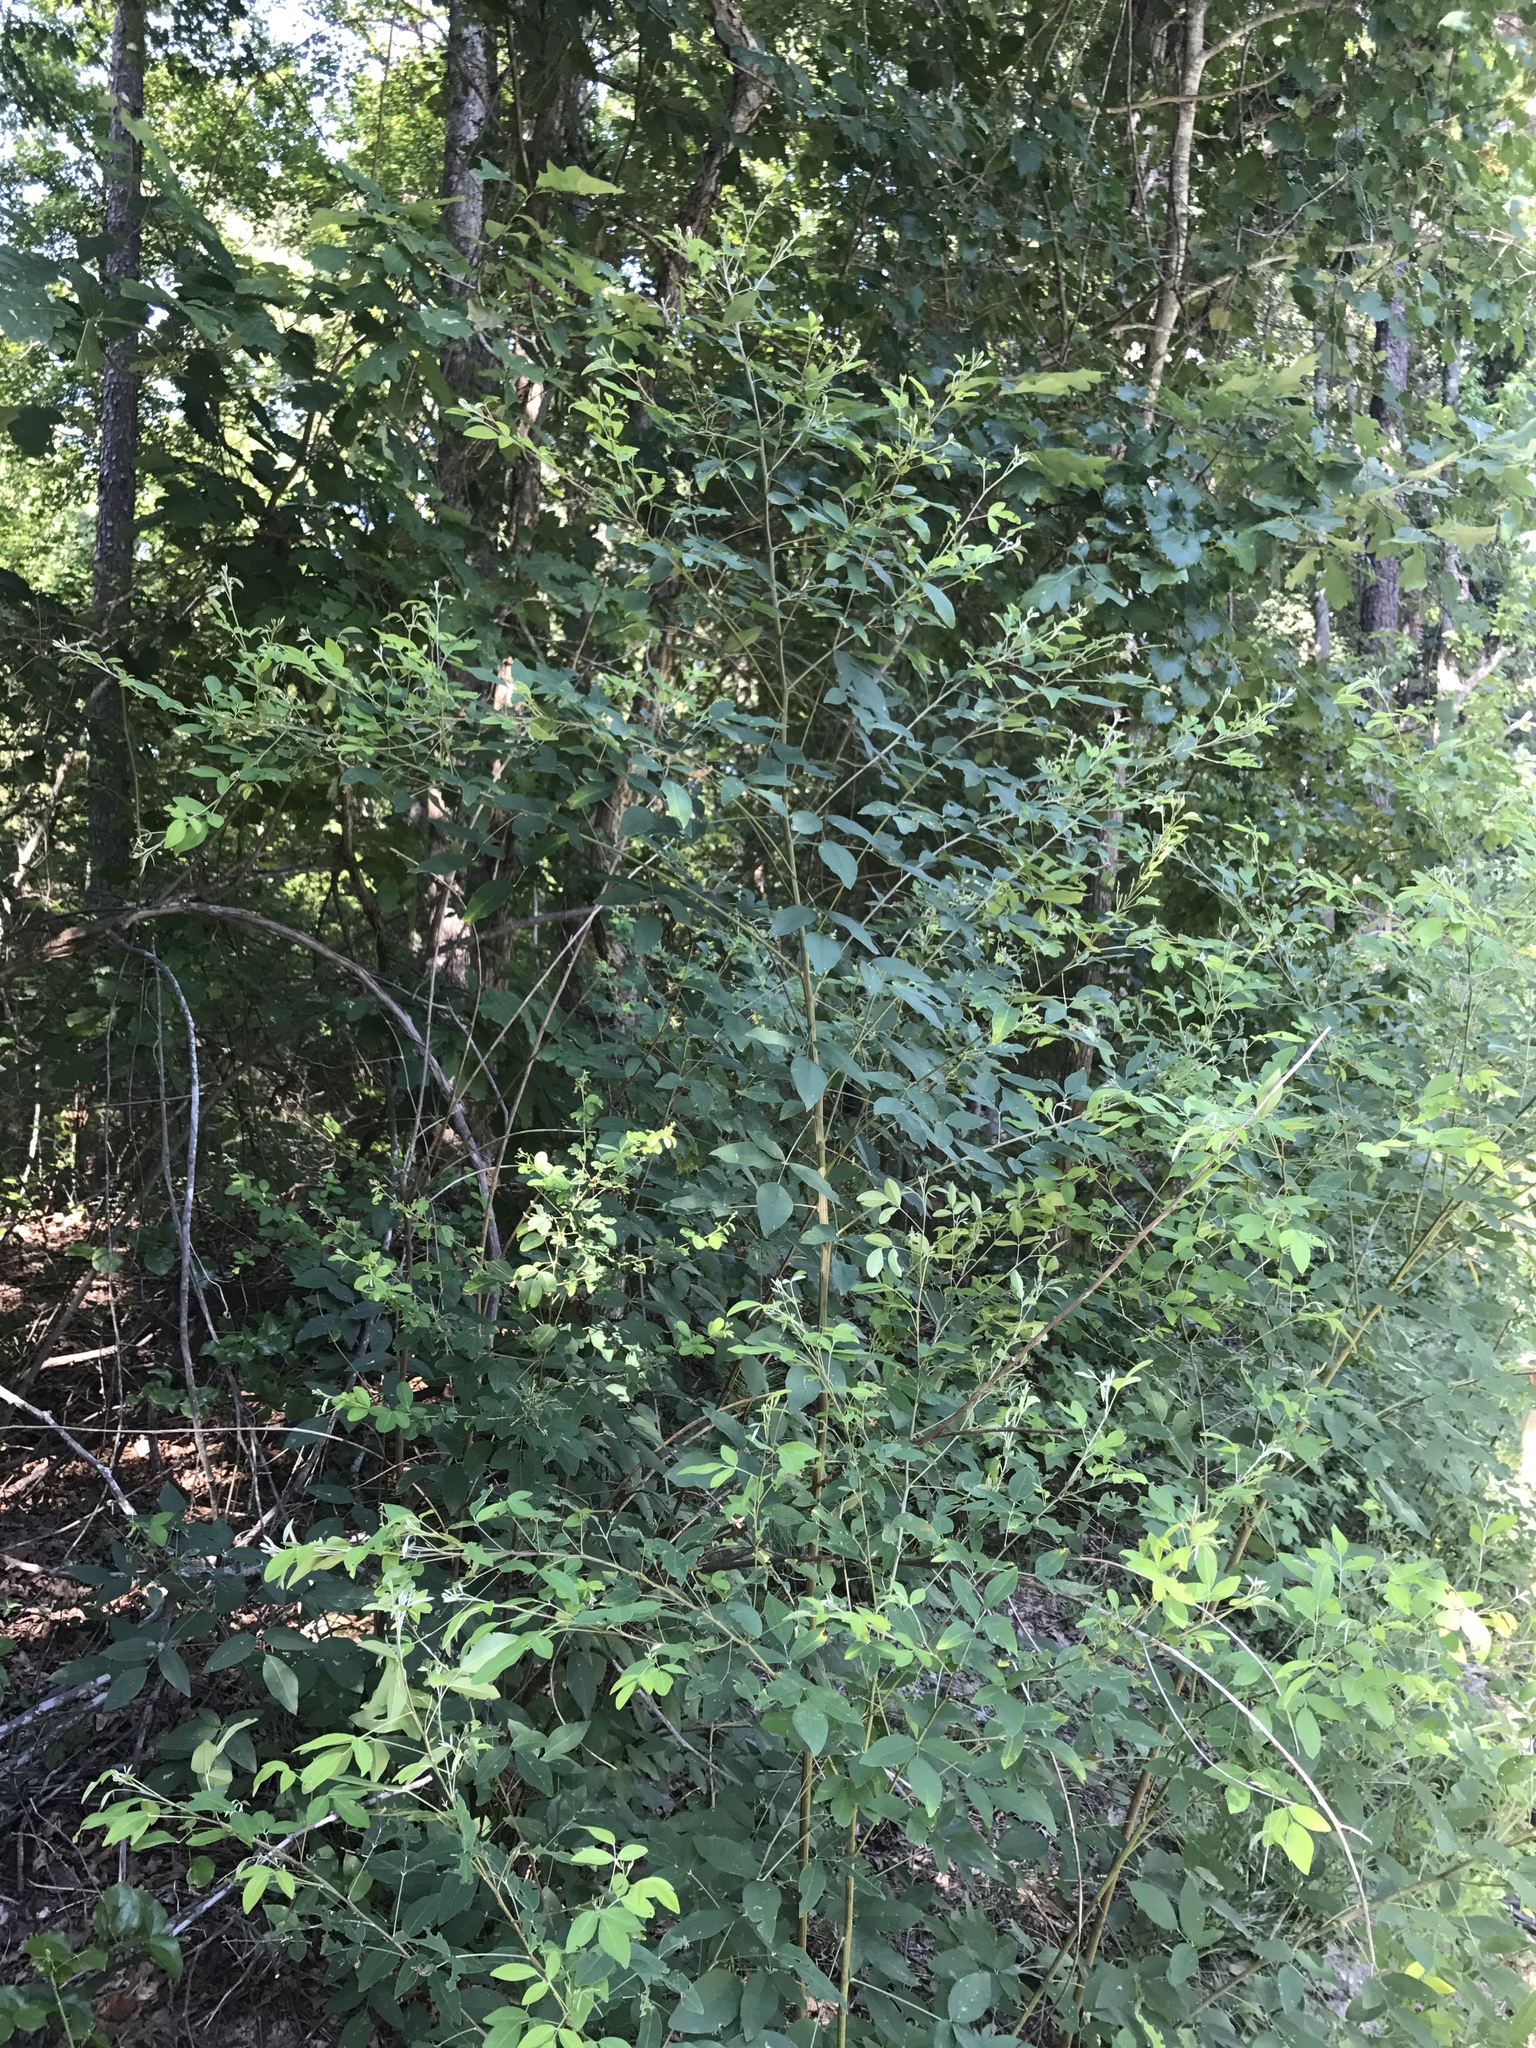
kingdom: Plantae
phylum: Tracheophyta
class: Magnoliopsida
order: Fabales
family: Fabaceae
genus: Lespedeza
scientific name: Lespedeza bicolor
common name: Shrub lespedeza
